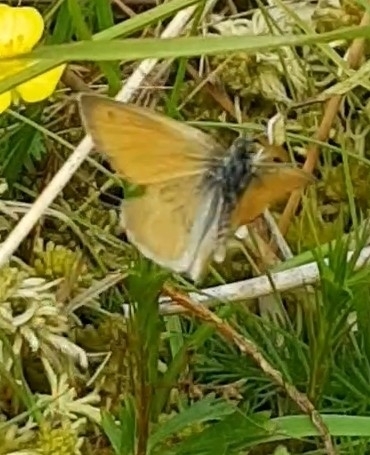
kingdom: Animalia
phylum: Arthropoda
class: Insecta
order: Lepidoptera
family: Nymphalidae
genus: Coenonympha
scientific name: Coenonympha pamphilus
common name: Small heath
